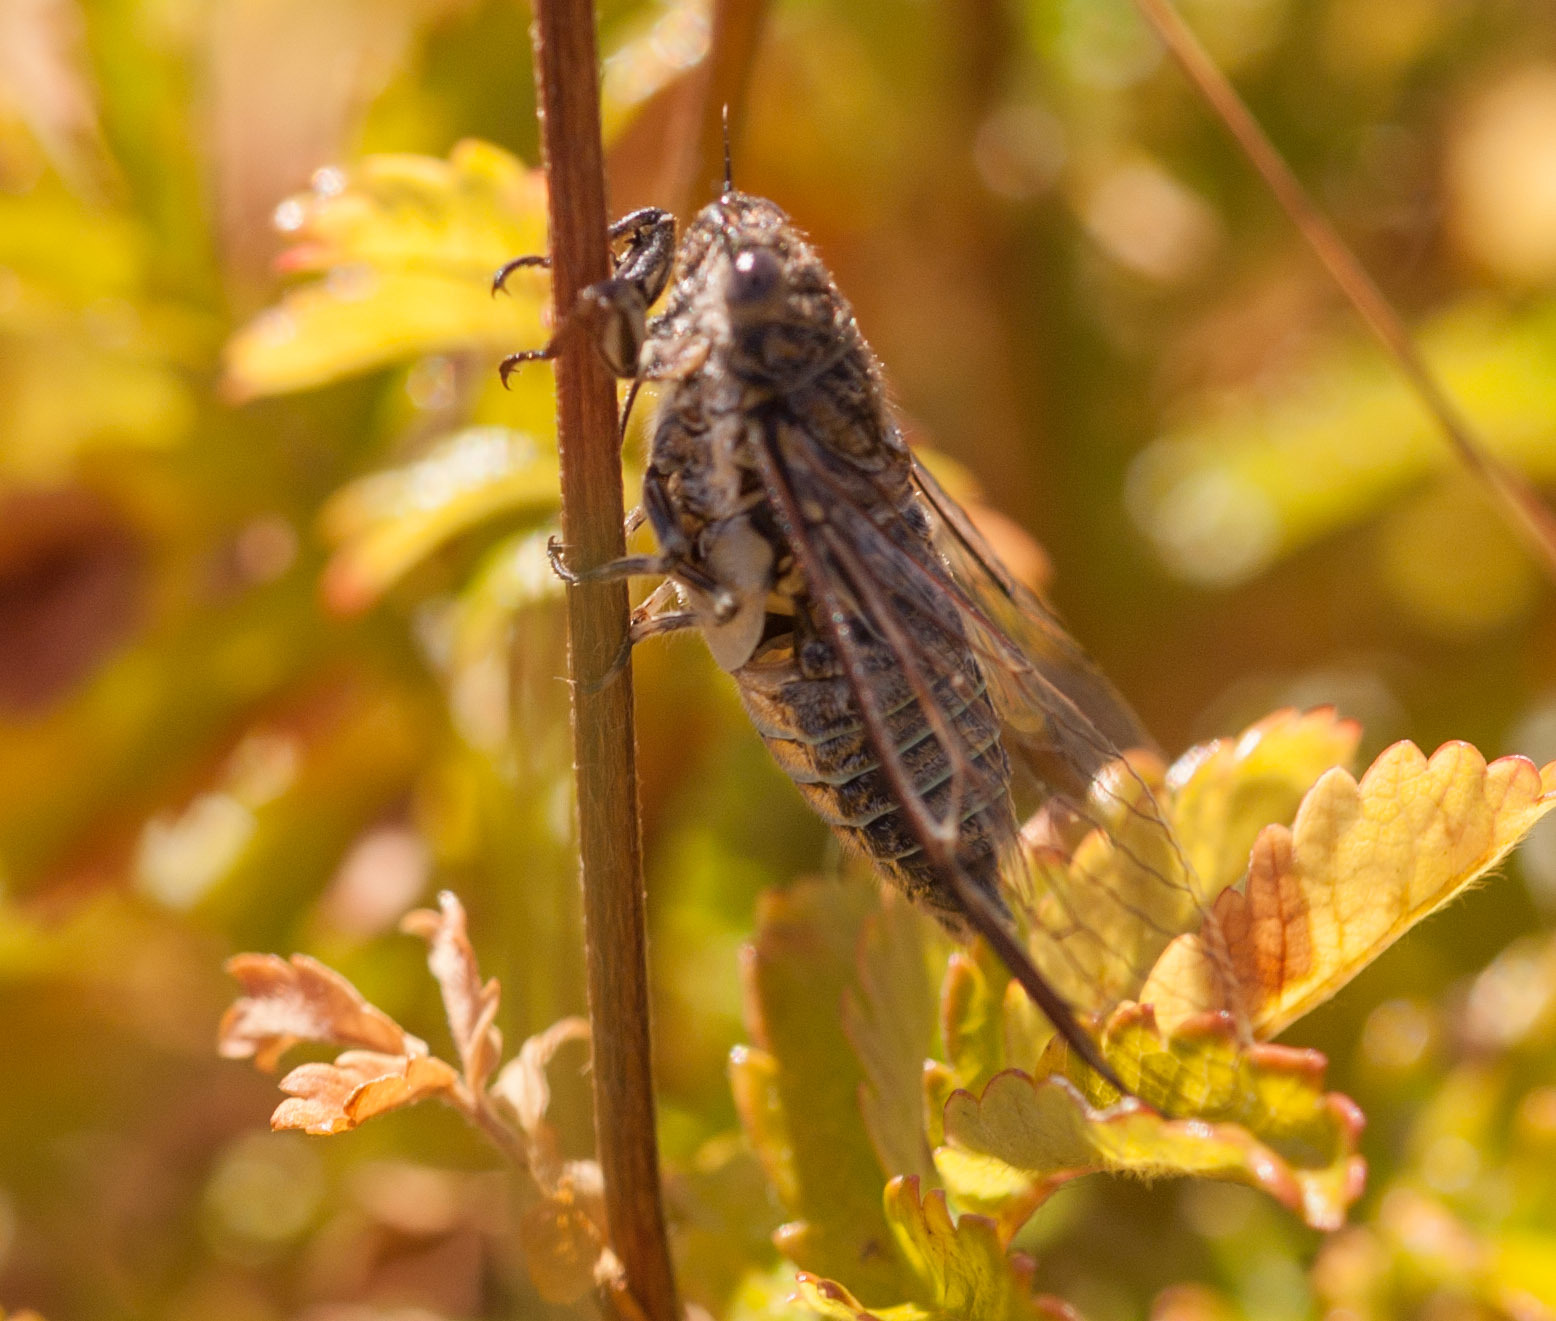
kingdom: Animalia
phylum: Arthropoda
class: Insecta
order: Hemiptera
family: Cicadidae
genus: Physeema
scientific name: Physeema labyrinthica
